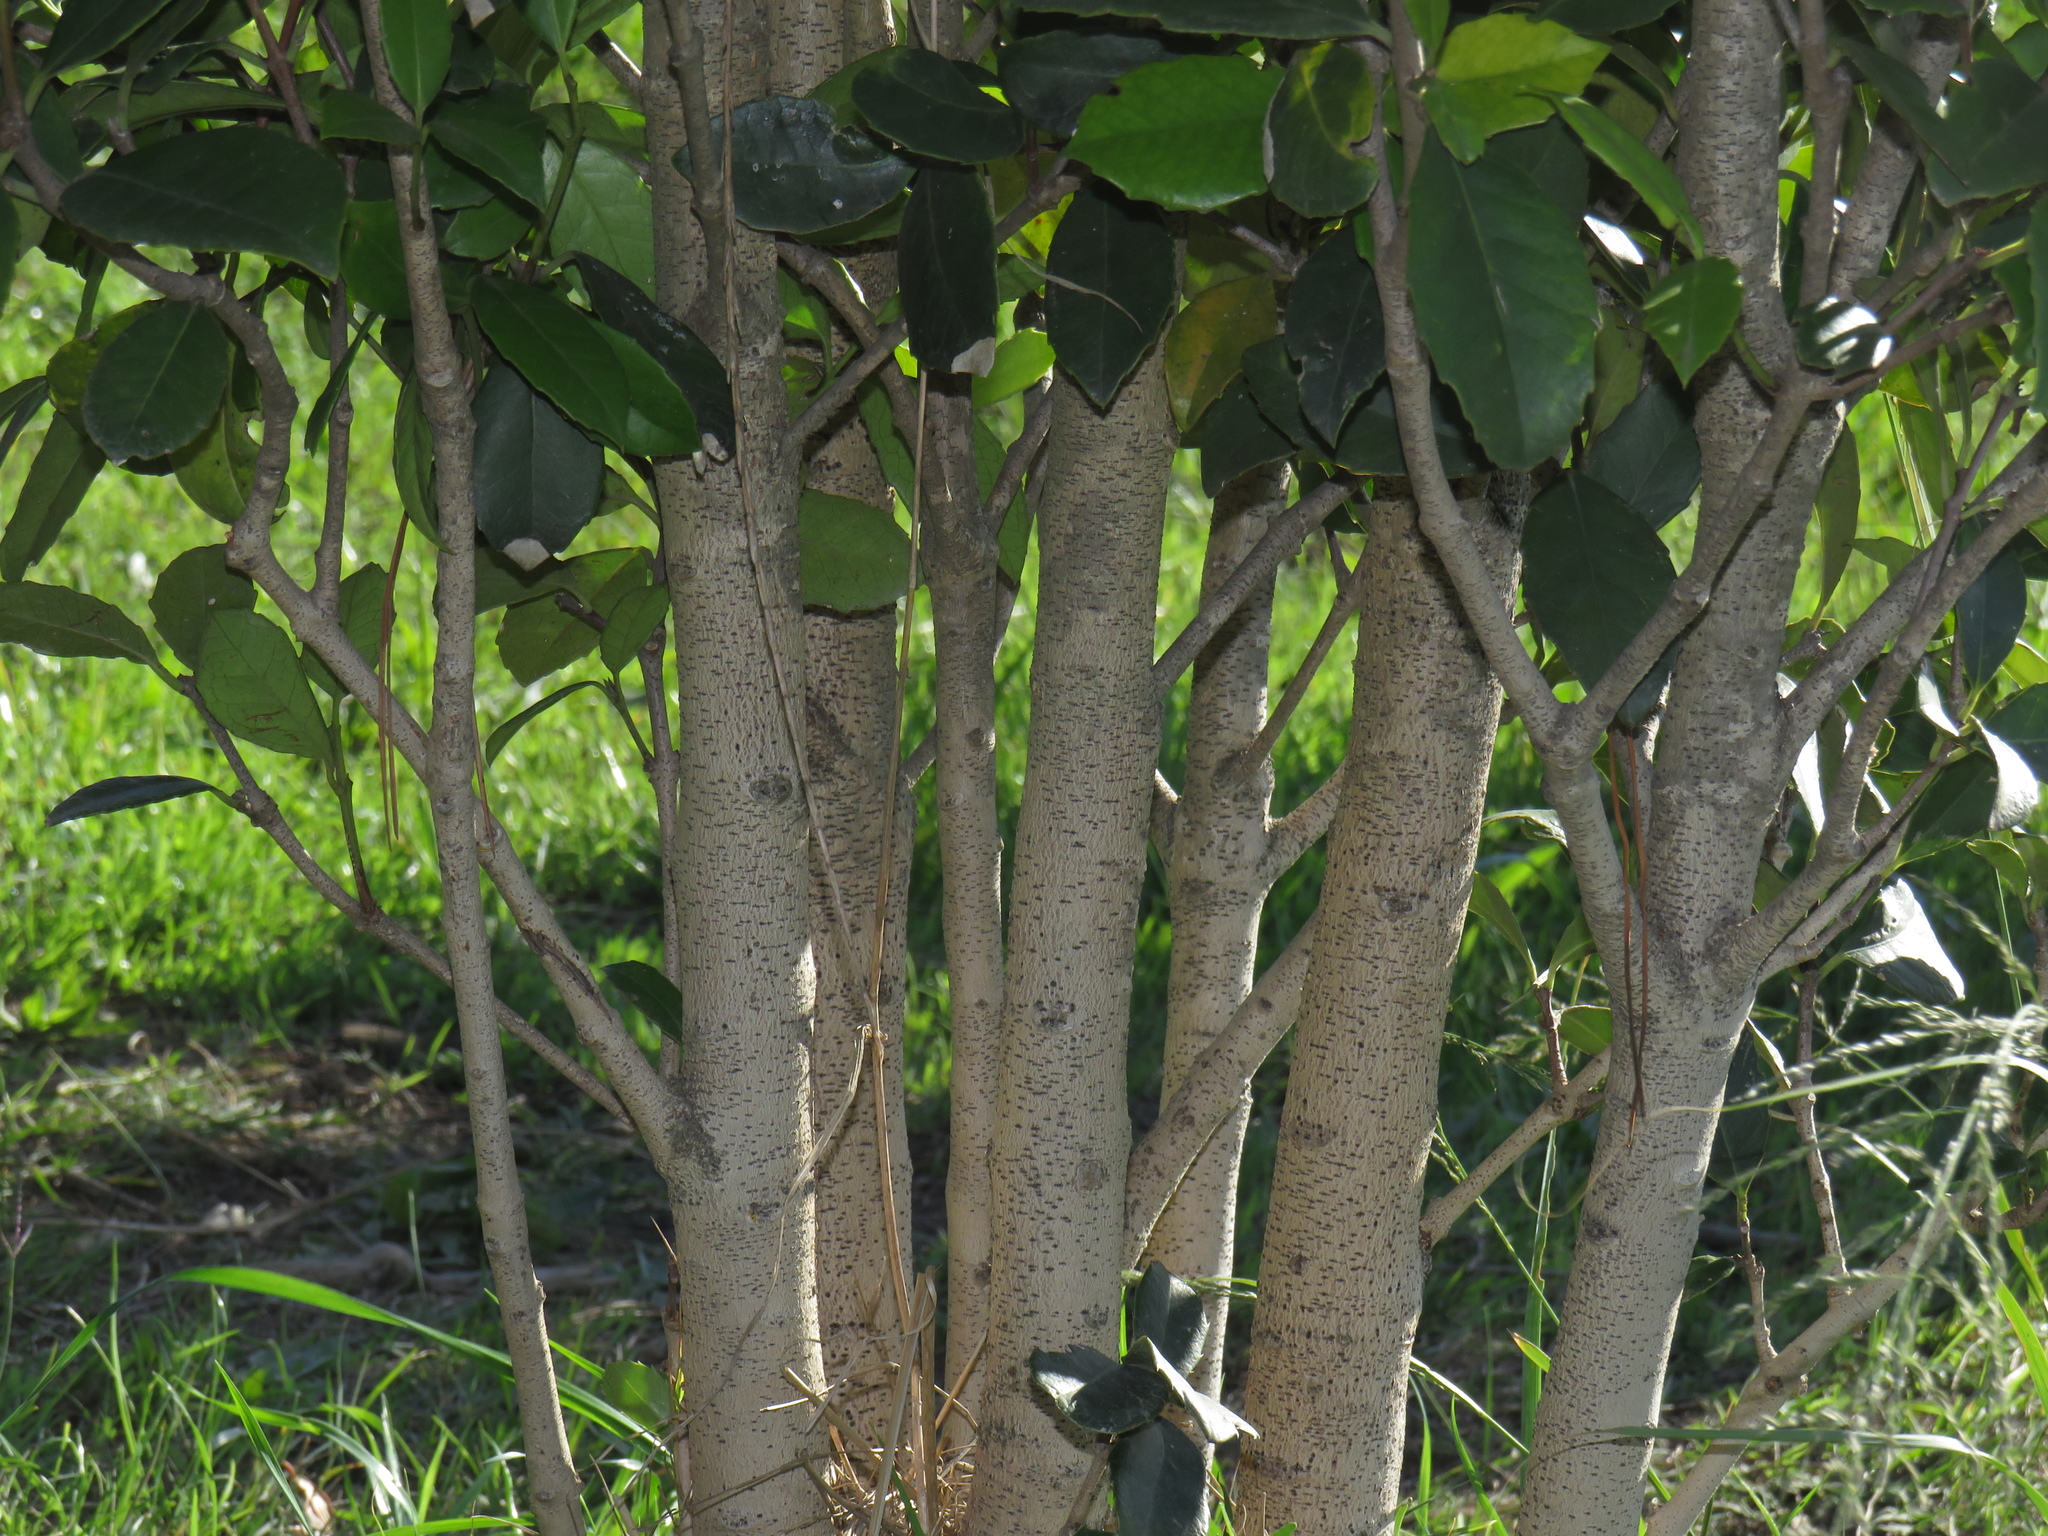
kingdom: Plantae
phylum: Tracheophyta
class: Magnoliopsida
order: Celastrales
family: Celastraceae
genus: Elaeodendron
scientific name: Elaeodendron croceum
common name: Saffron
